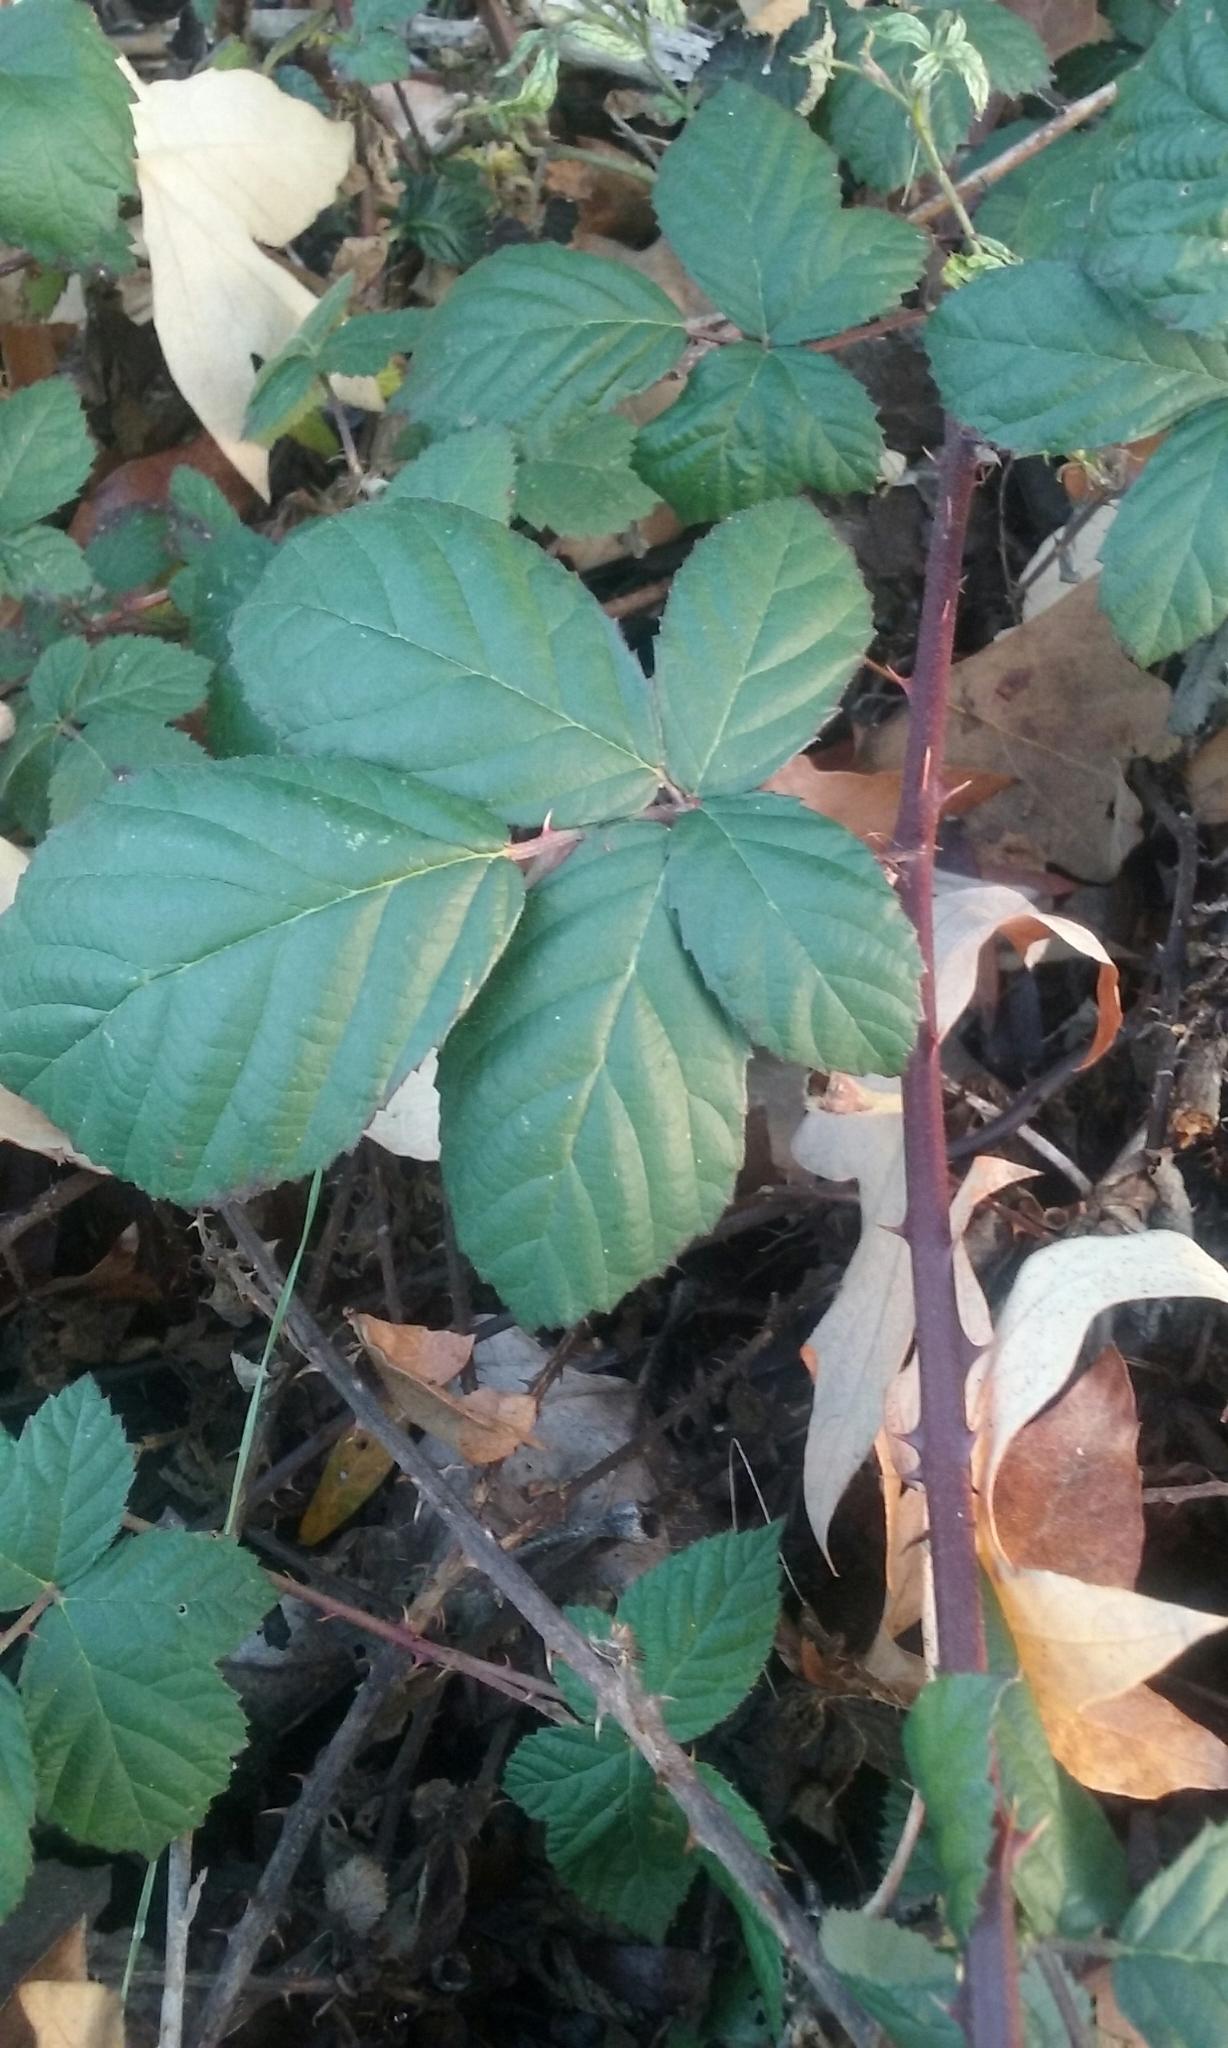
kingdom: Plantae
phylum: Tracheophyta
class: Magnoliopsida
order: Rosales
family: Rosaceae
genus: Rubus
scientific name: Rubus armeniacus
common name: Himalayan blackberry
